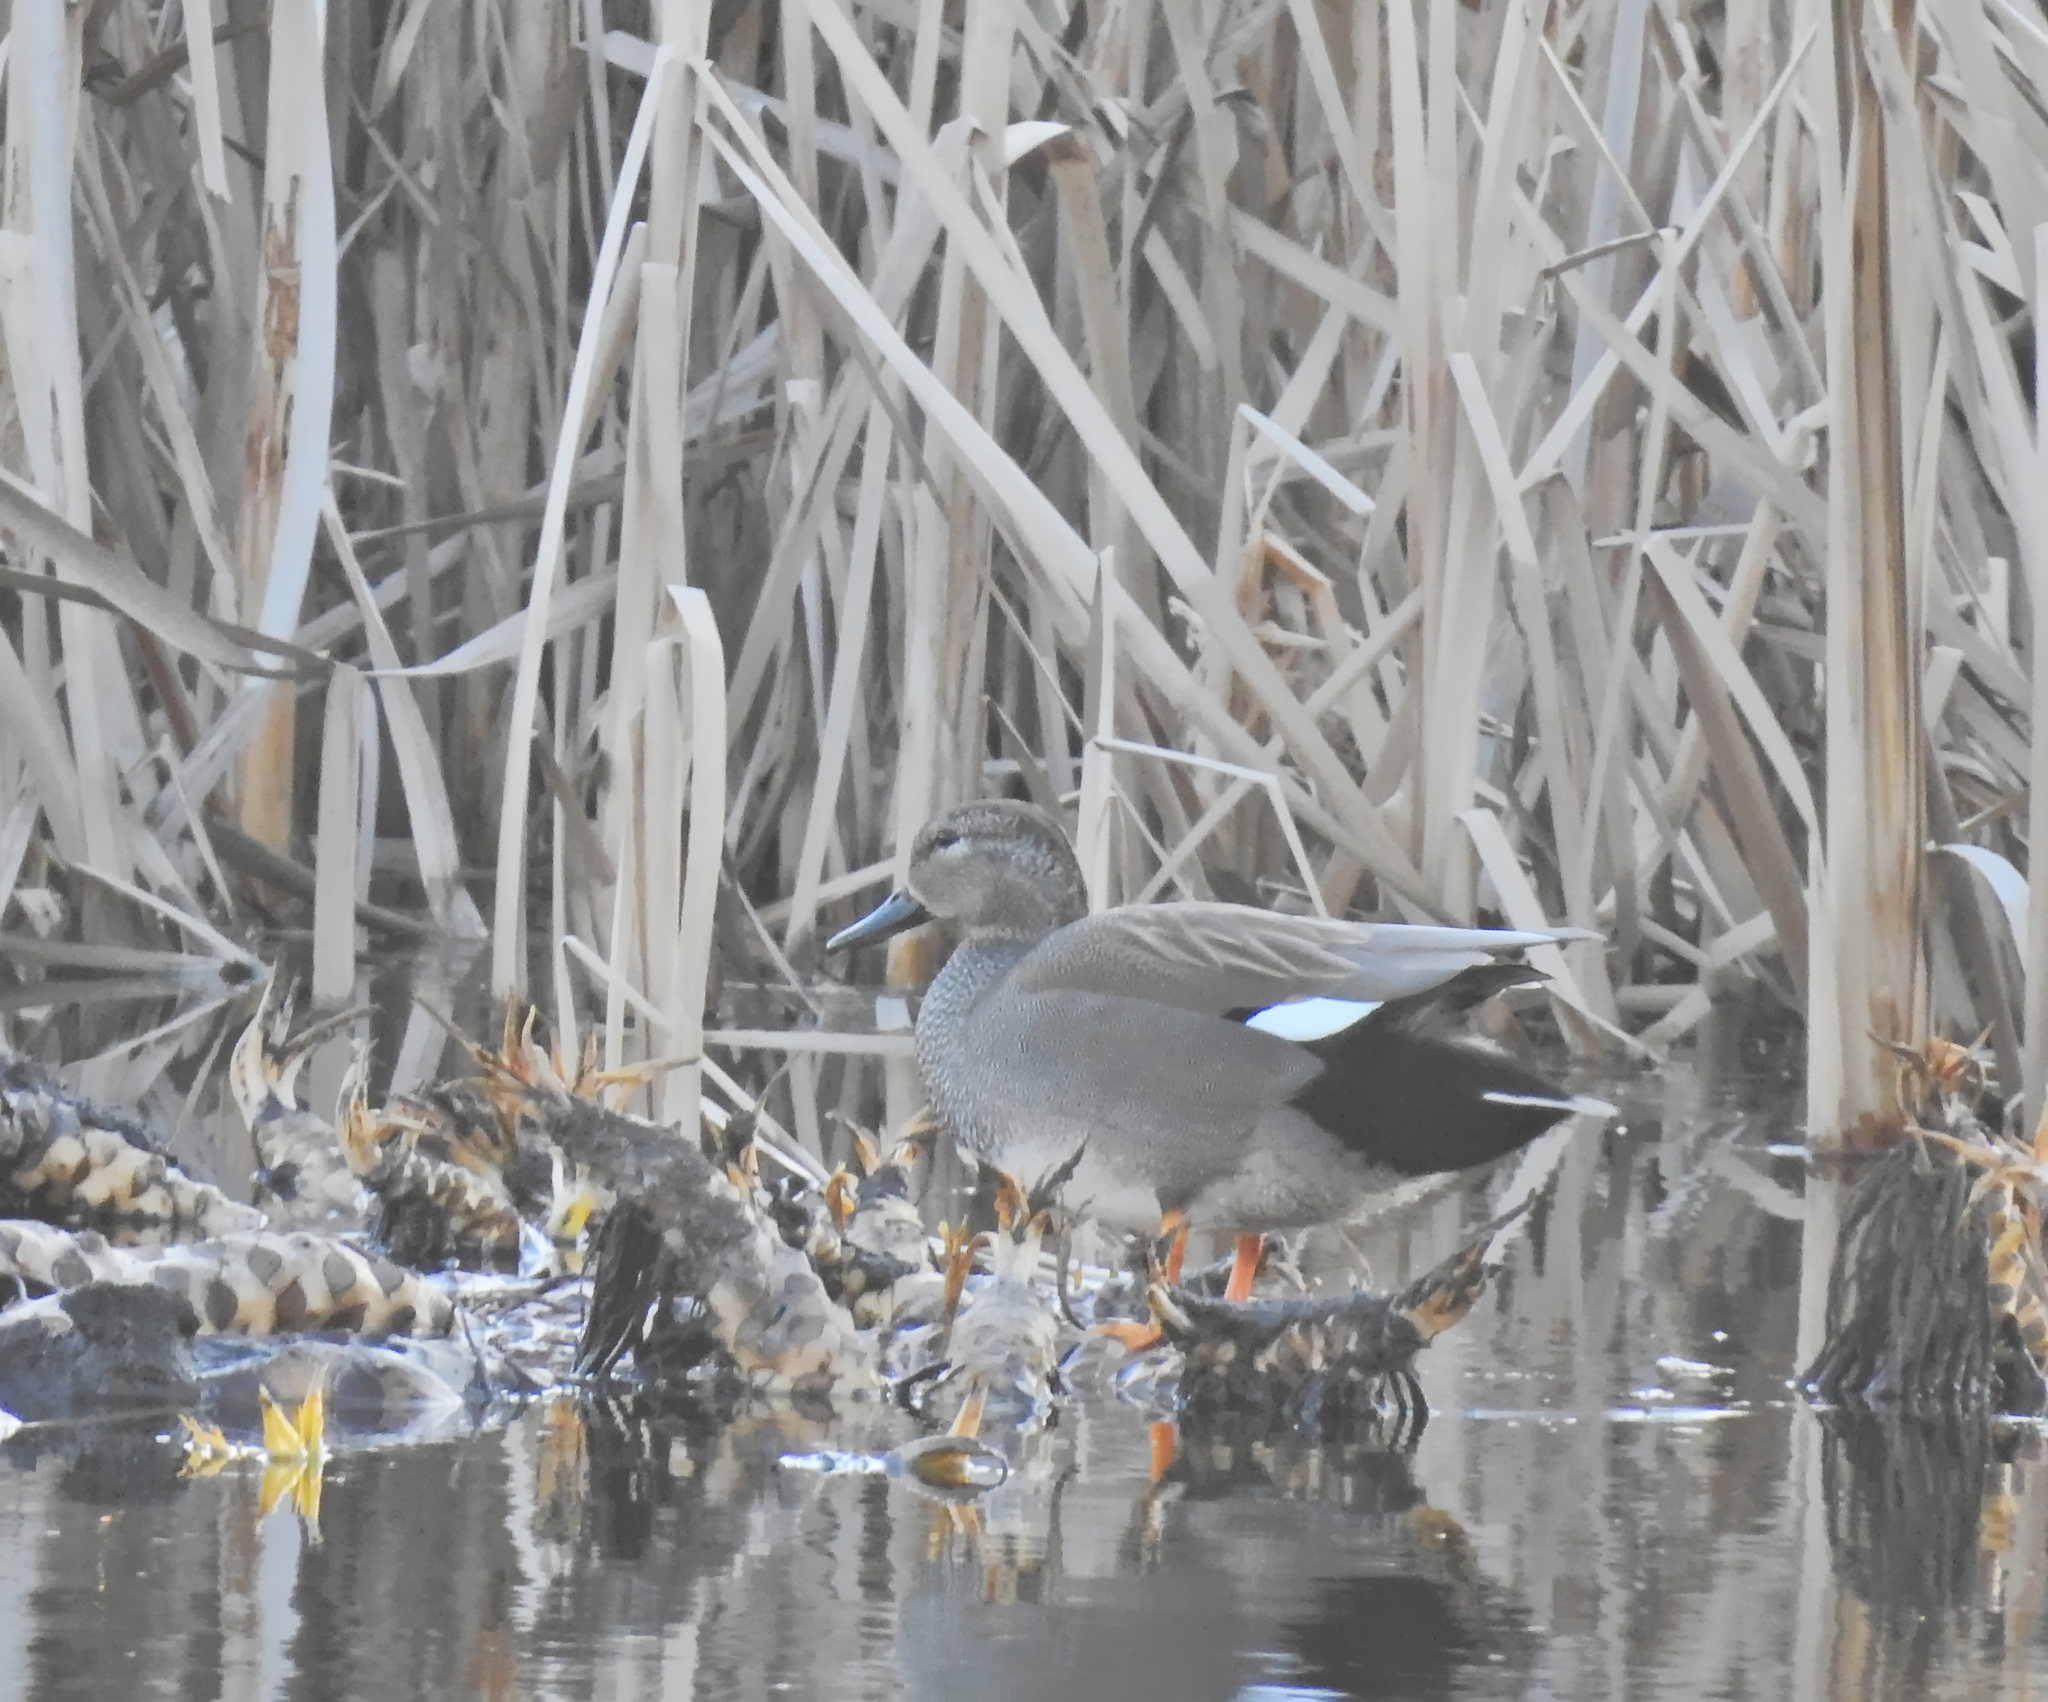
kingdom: Animalia
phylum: Chordata
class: Aves
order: Anseriformes
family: Anatidae
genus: Mareca
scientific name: Mareca strepera
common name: Gadwall
